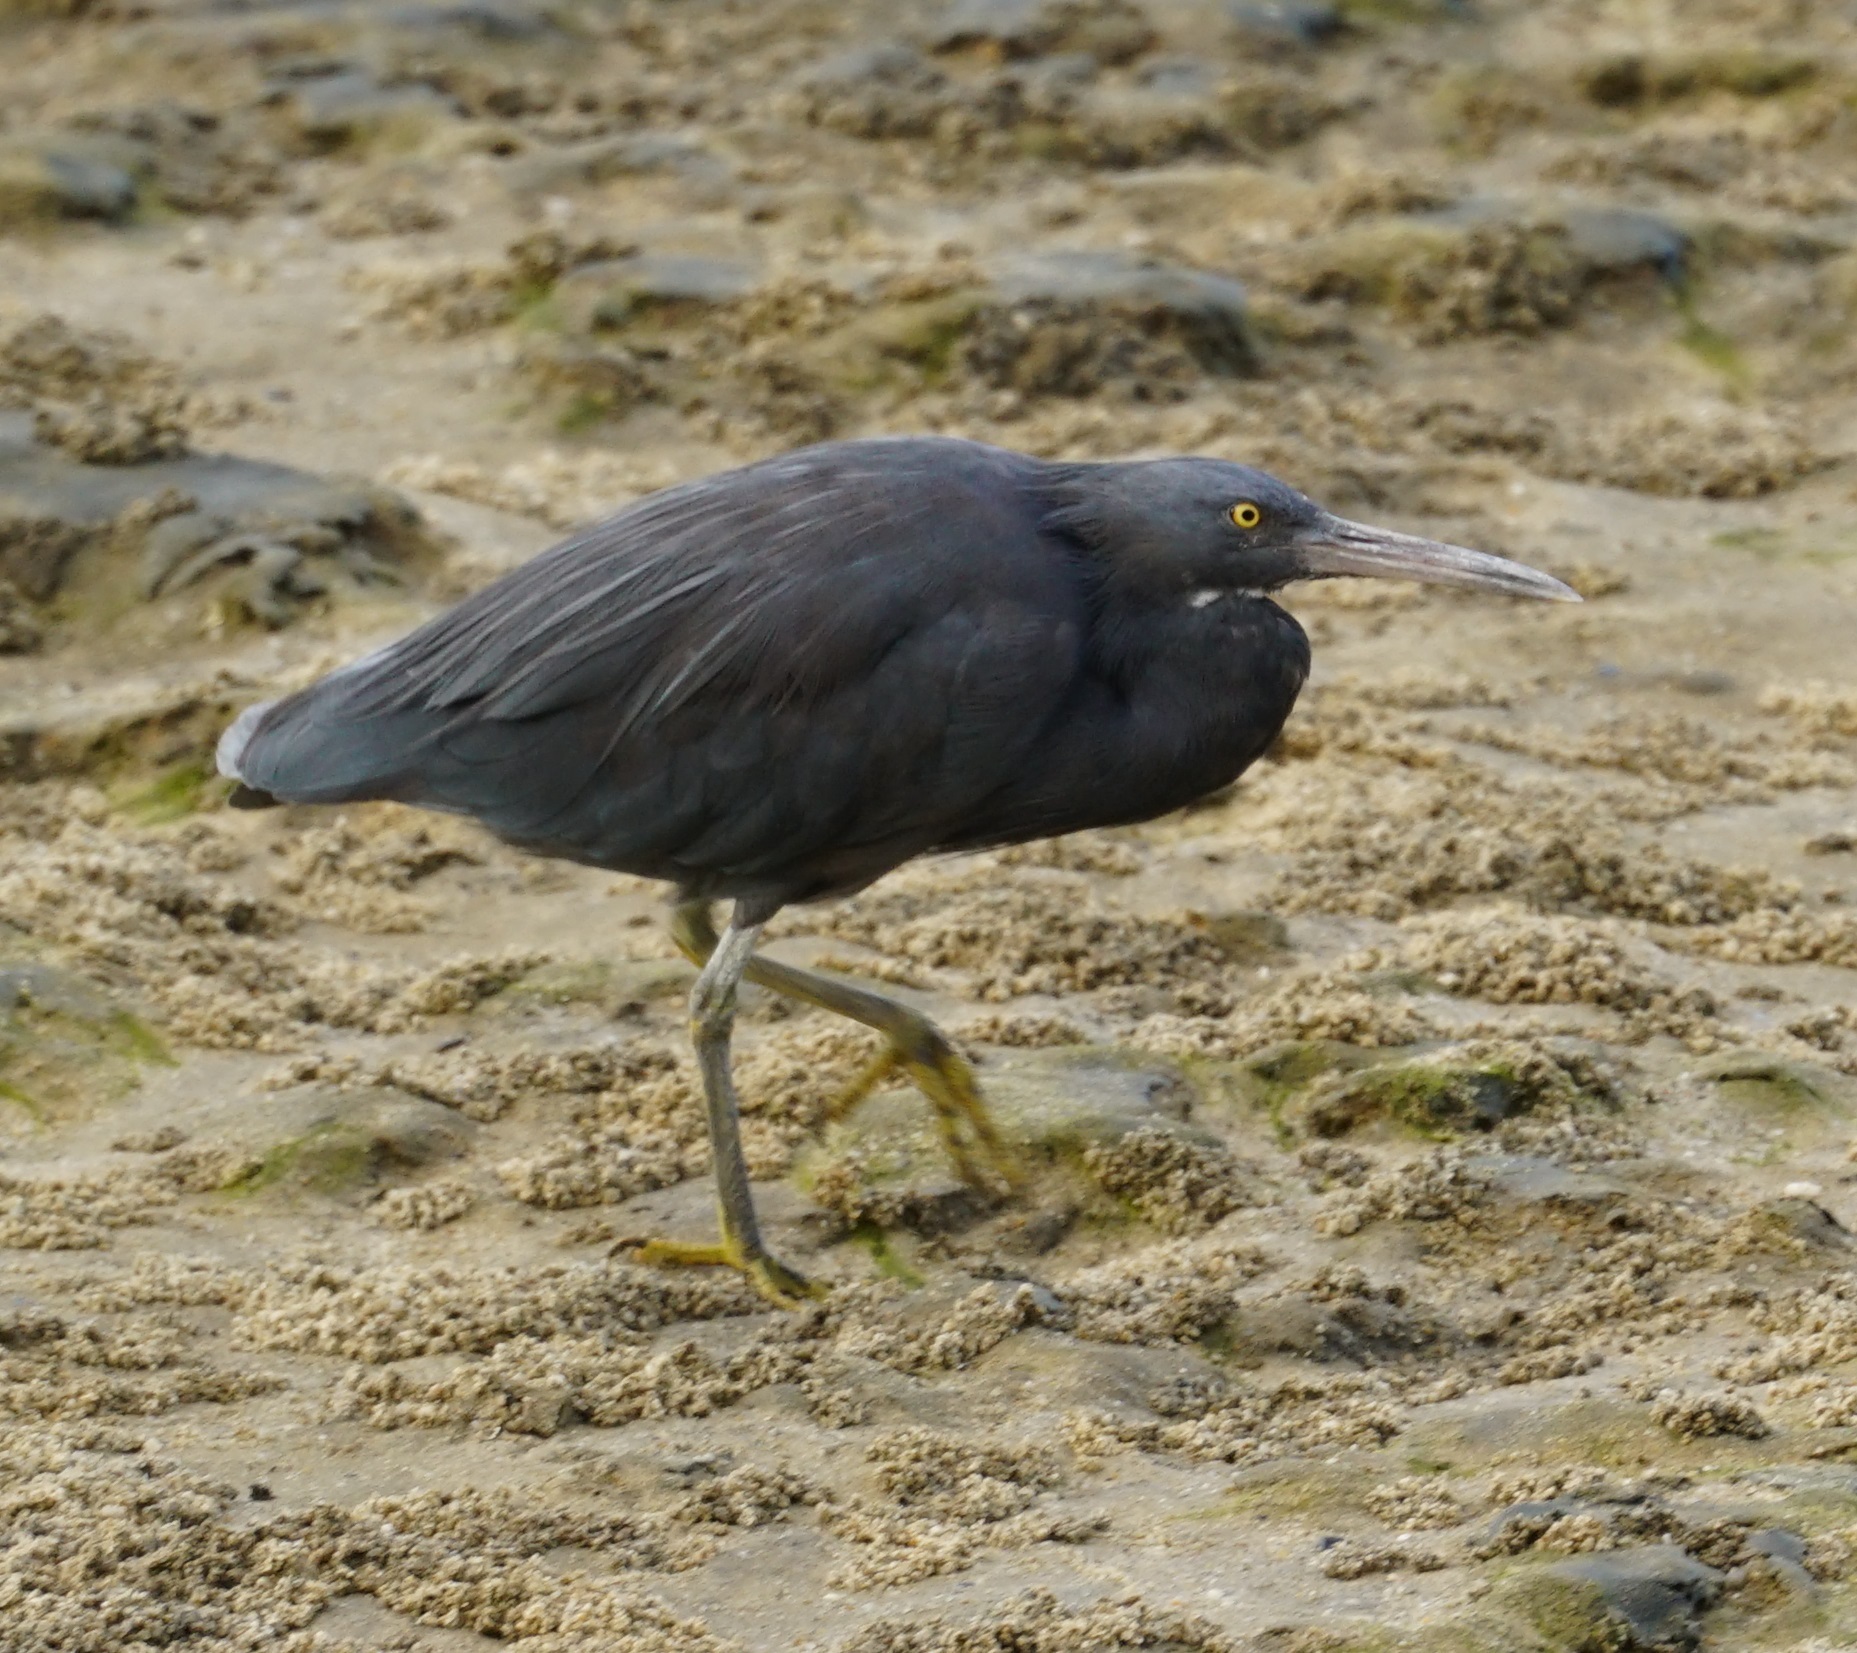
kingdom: Animalia
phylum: Chordata
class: Aves
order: Pelecaniformes
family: Ardeidae
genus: Egretta
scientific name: Egretta sacra
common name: Pacific reef heron
